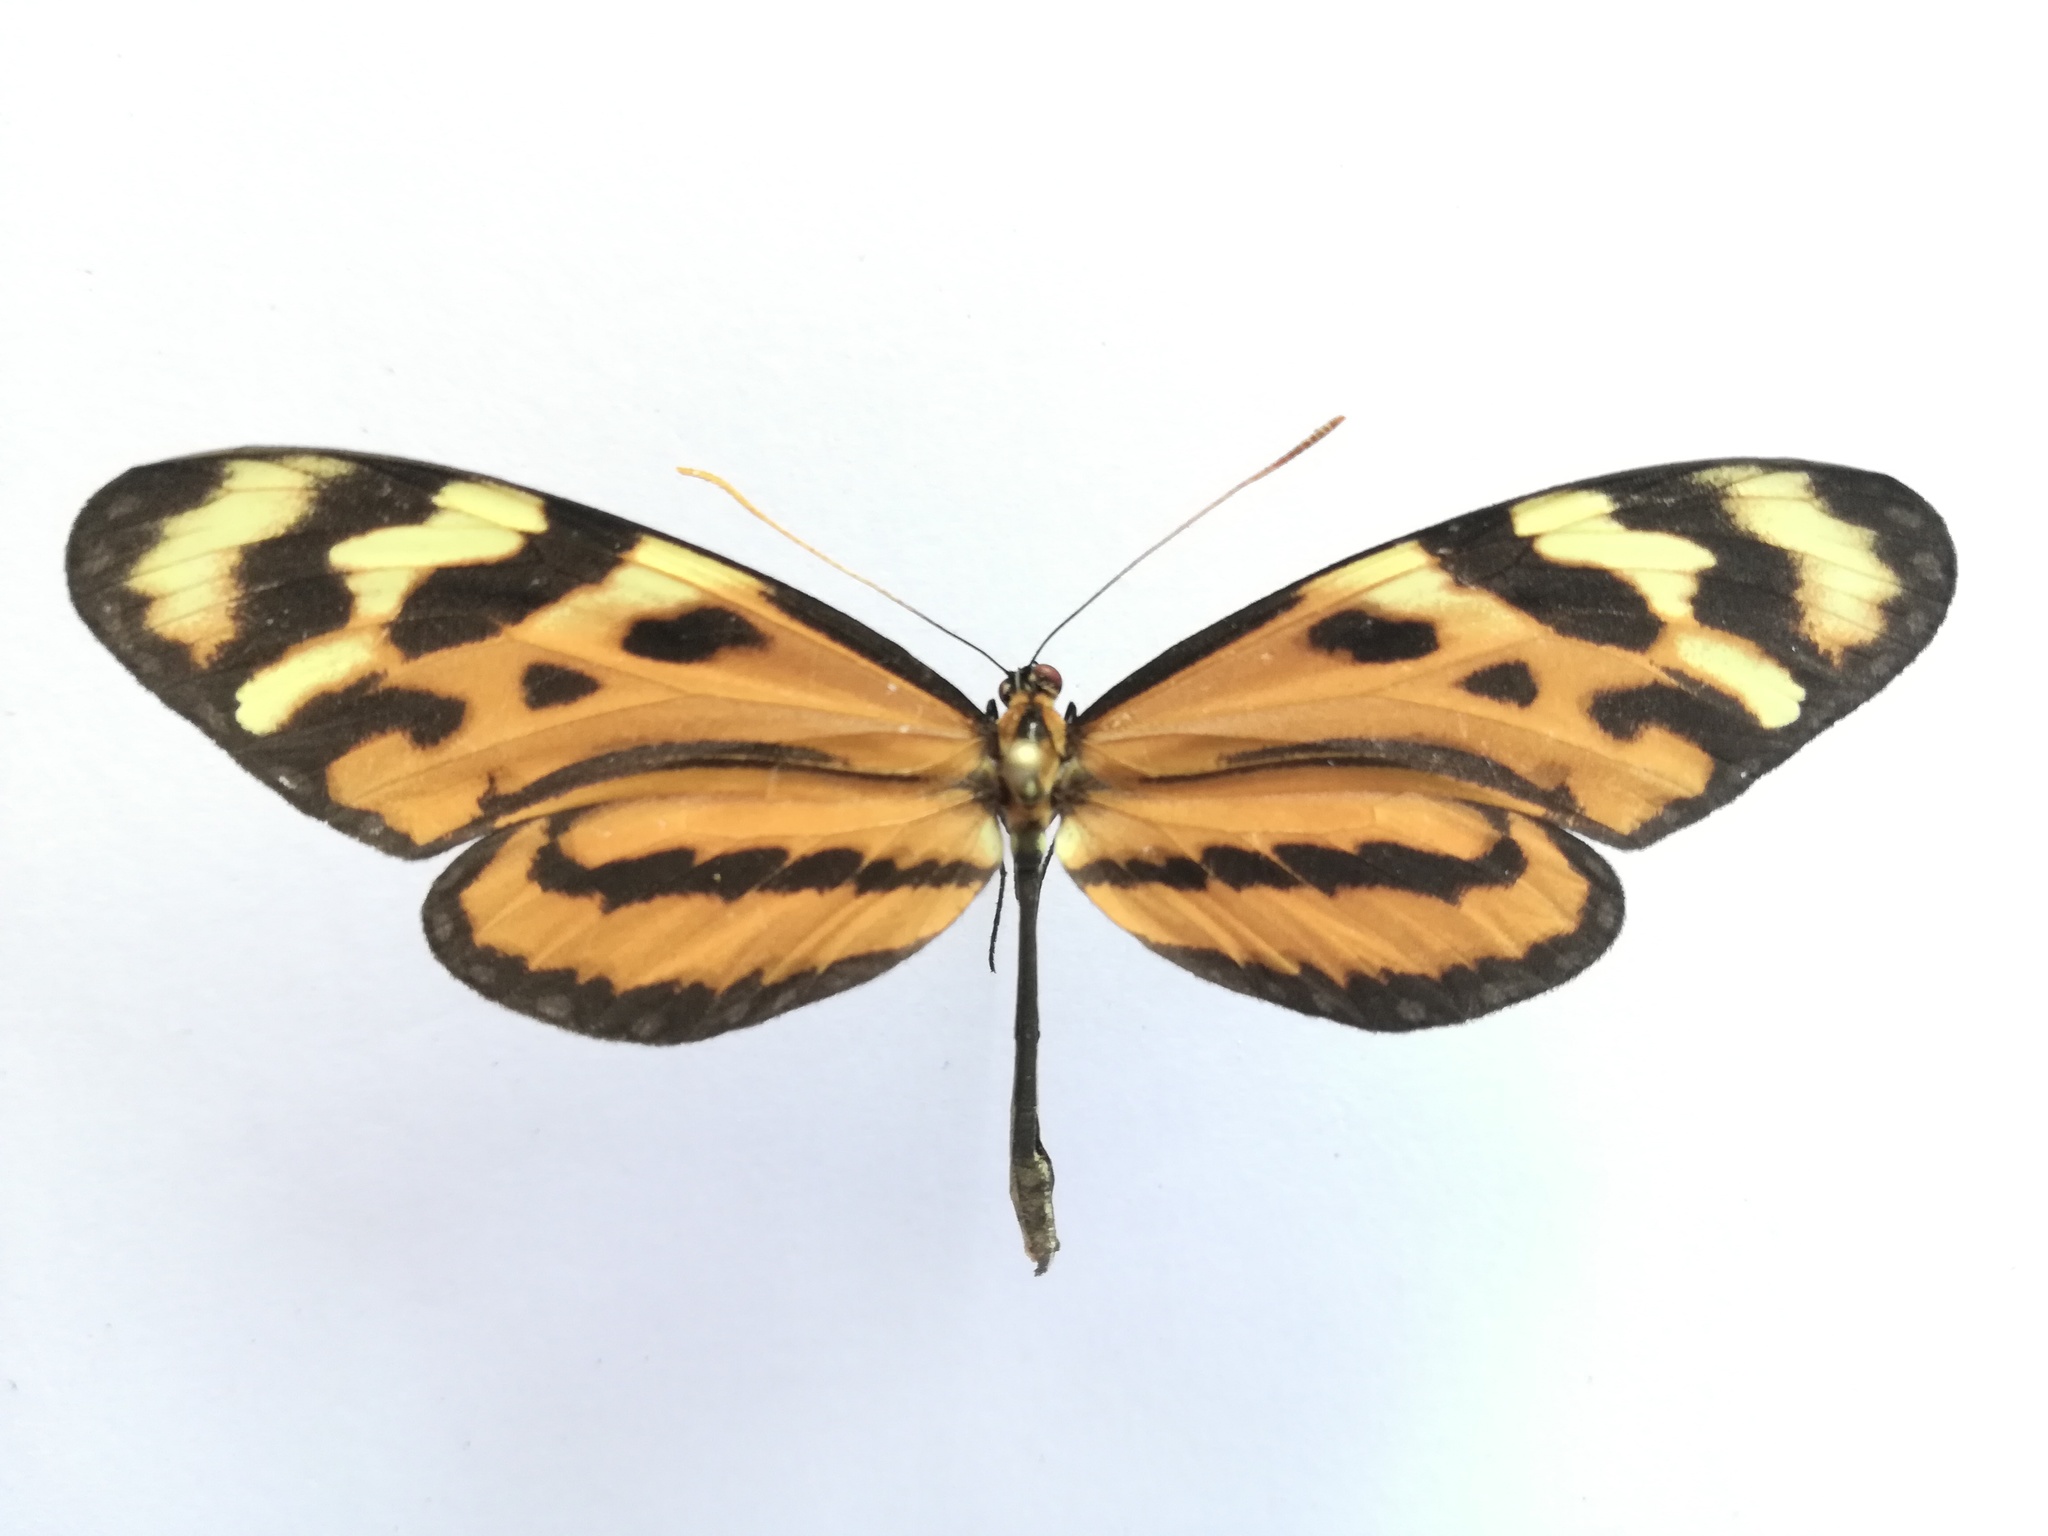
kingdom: Animalia
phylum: Arthropoda
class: Insecta
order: Lepidoptera
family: Nymphalidae
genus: Mechanitis
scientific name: Mechanitis lysimnia
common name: Lysimnia tigerwing
